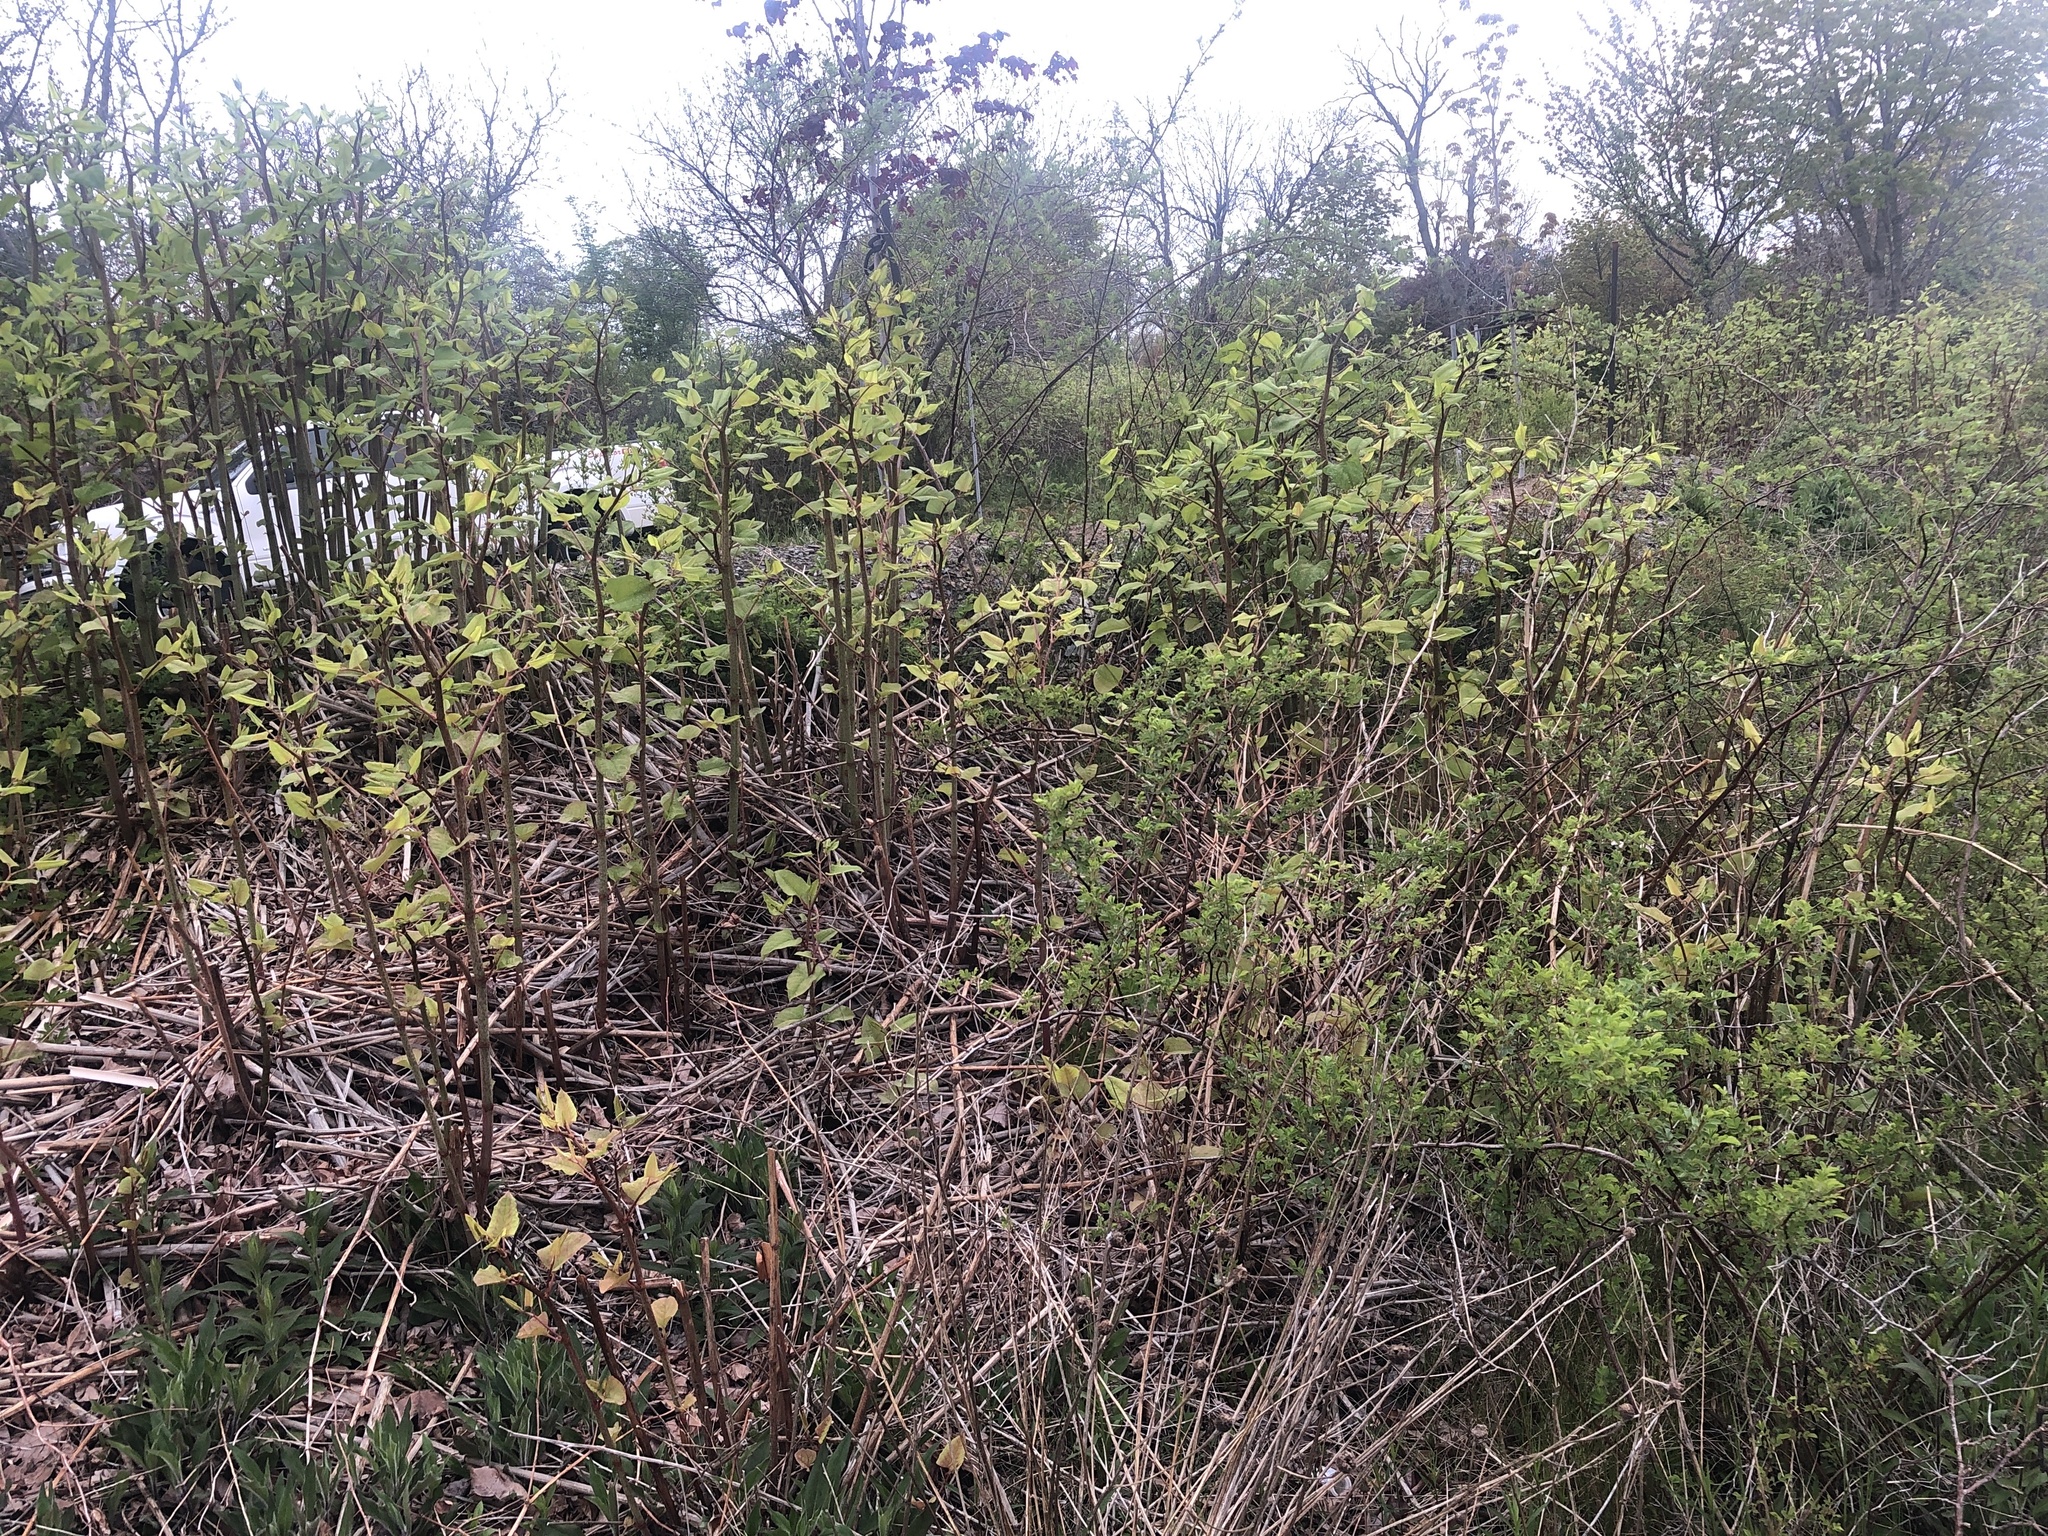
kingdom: Plantae
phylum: Tracheophyta
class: Magnoliopsida
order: Caryophyllales
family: Polygonaceae
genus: Reynoutria
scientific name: Reynoutria japonica
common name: Japanese knotweed
